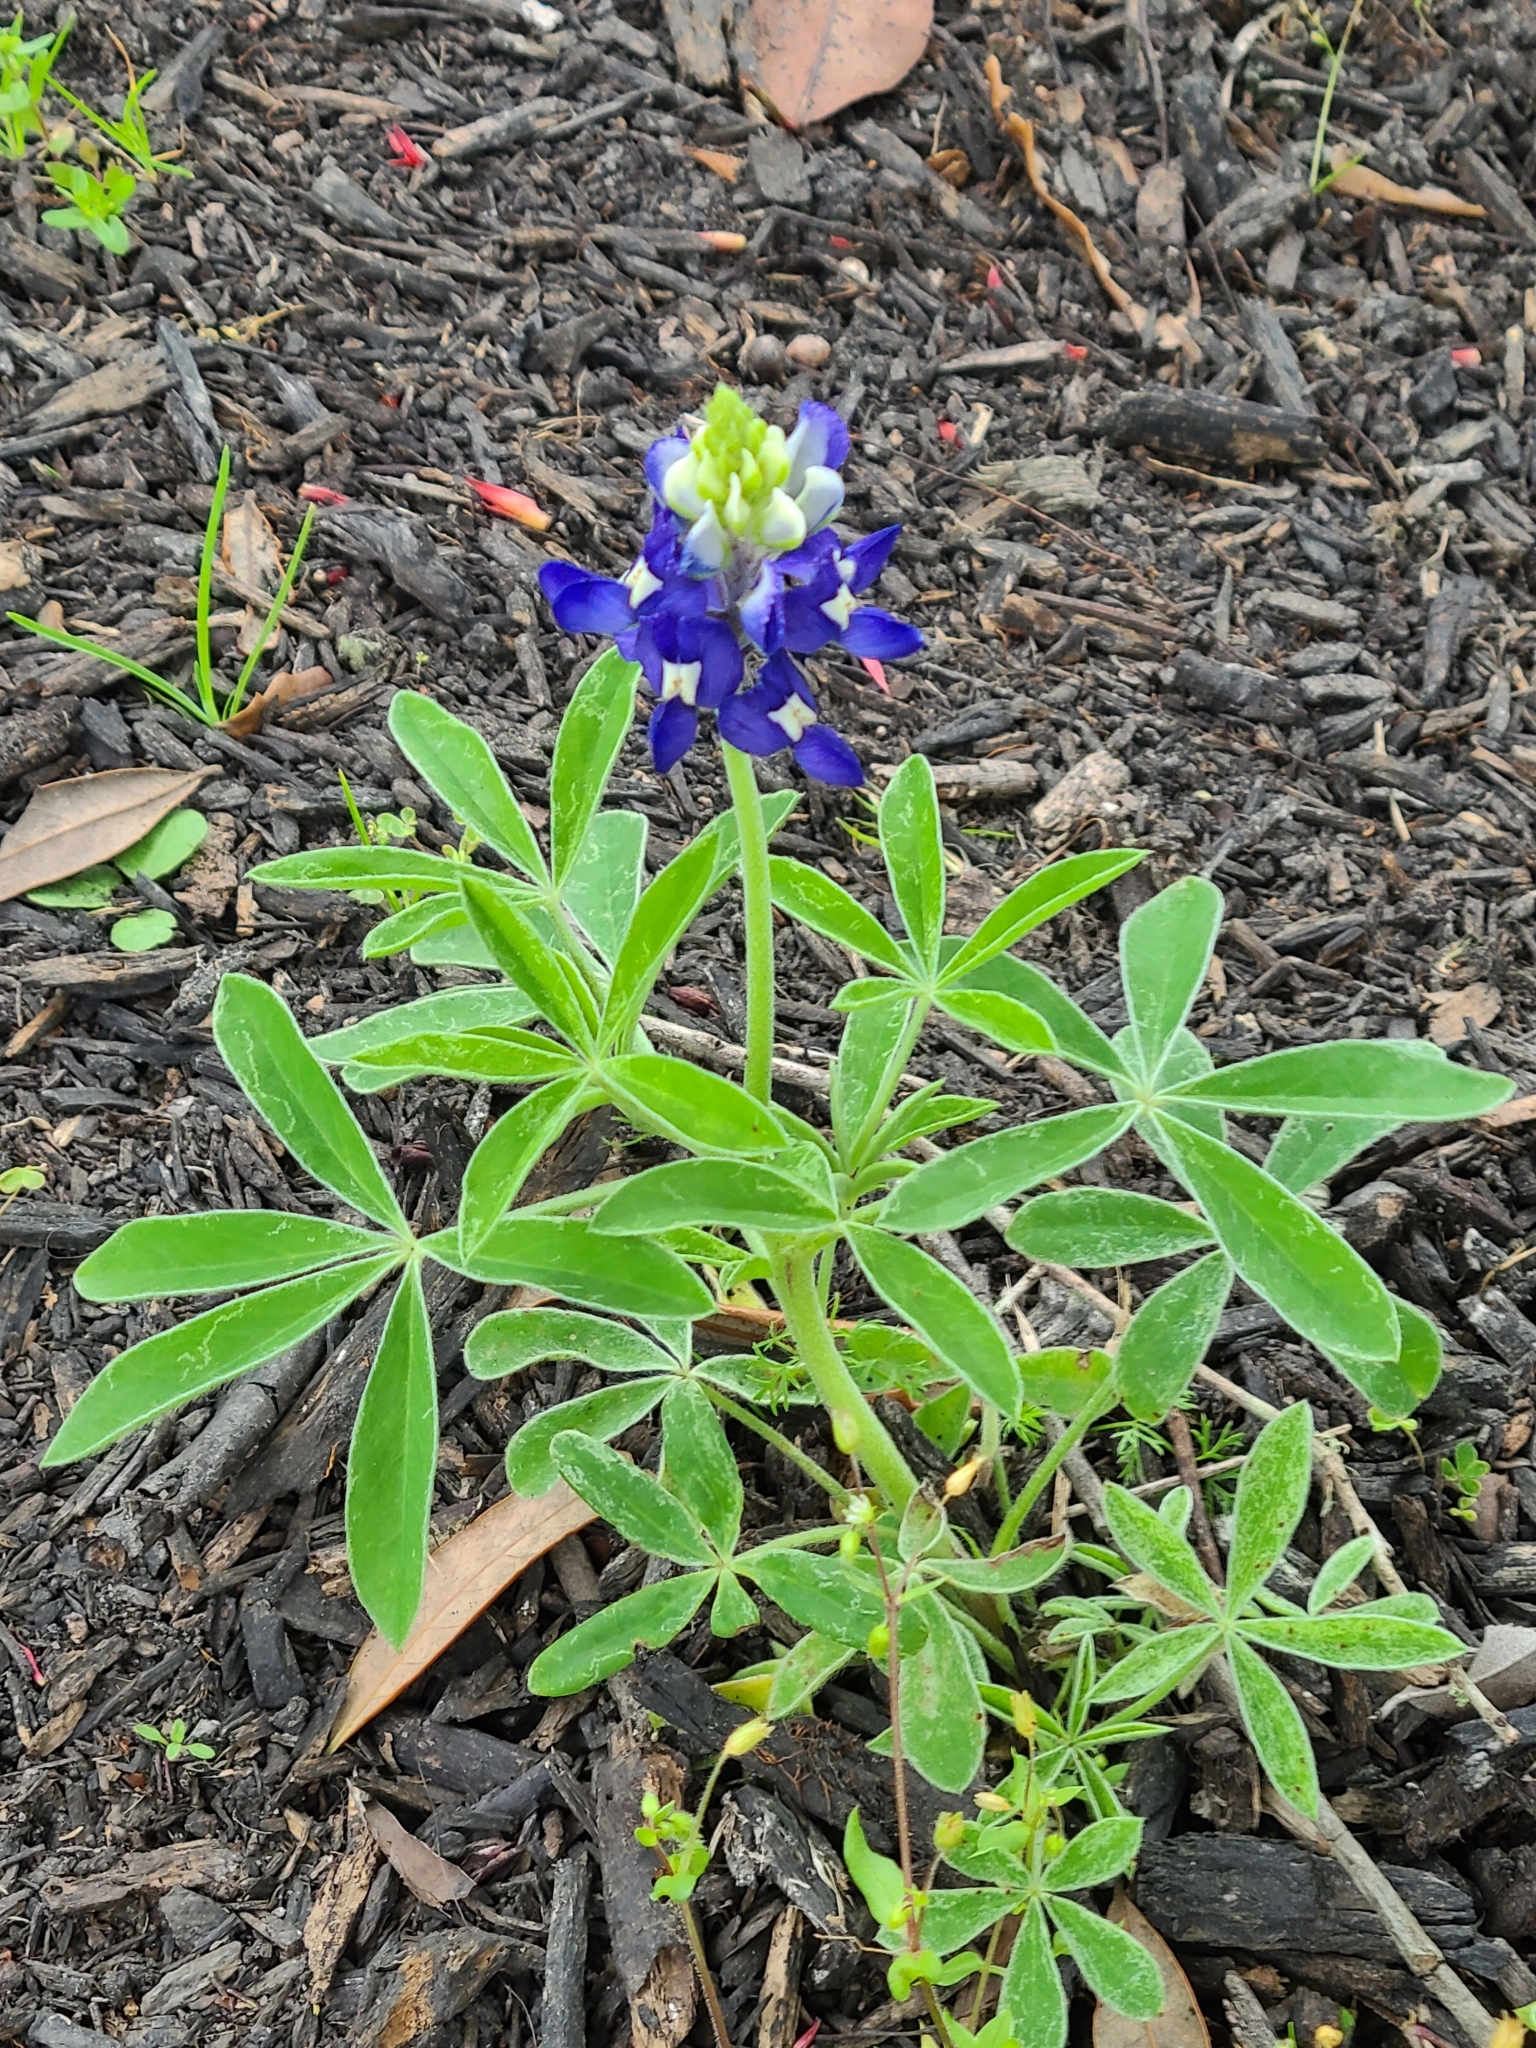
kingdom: Plantae
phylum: Tracheophyta
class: Magnoliopsida
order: Fabales
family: Fabaceae
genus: Lupinus
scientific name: Lupinus texensis
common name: Texas bluebonnet
